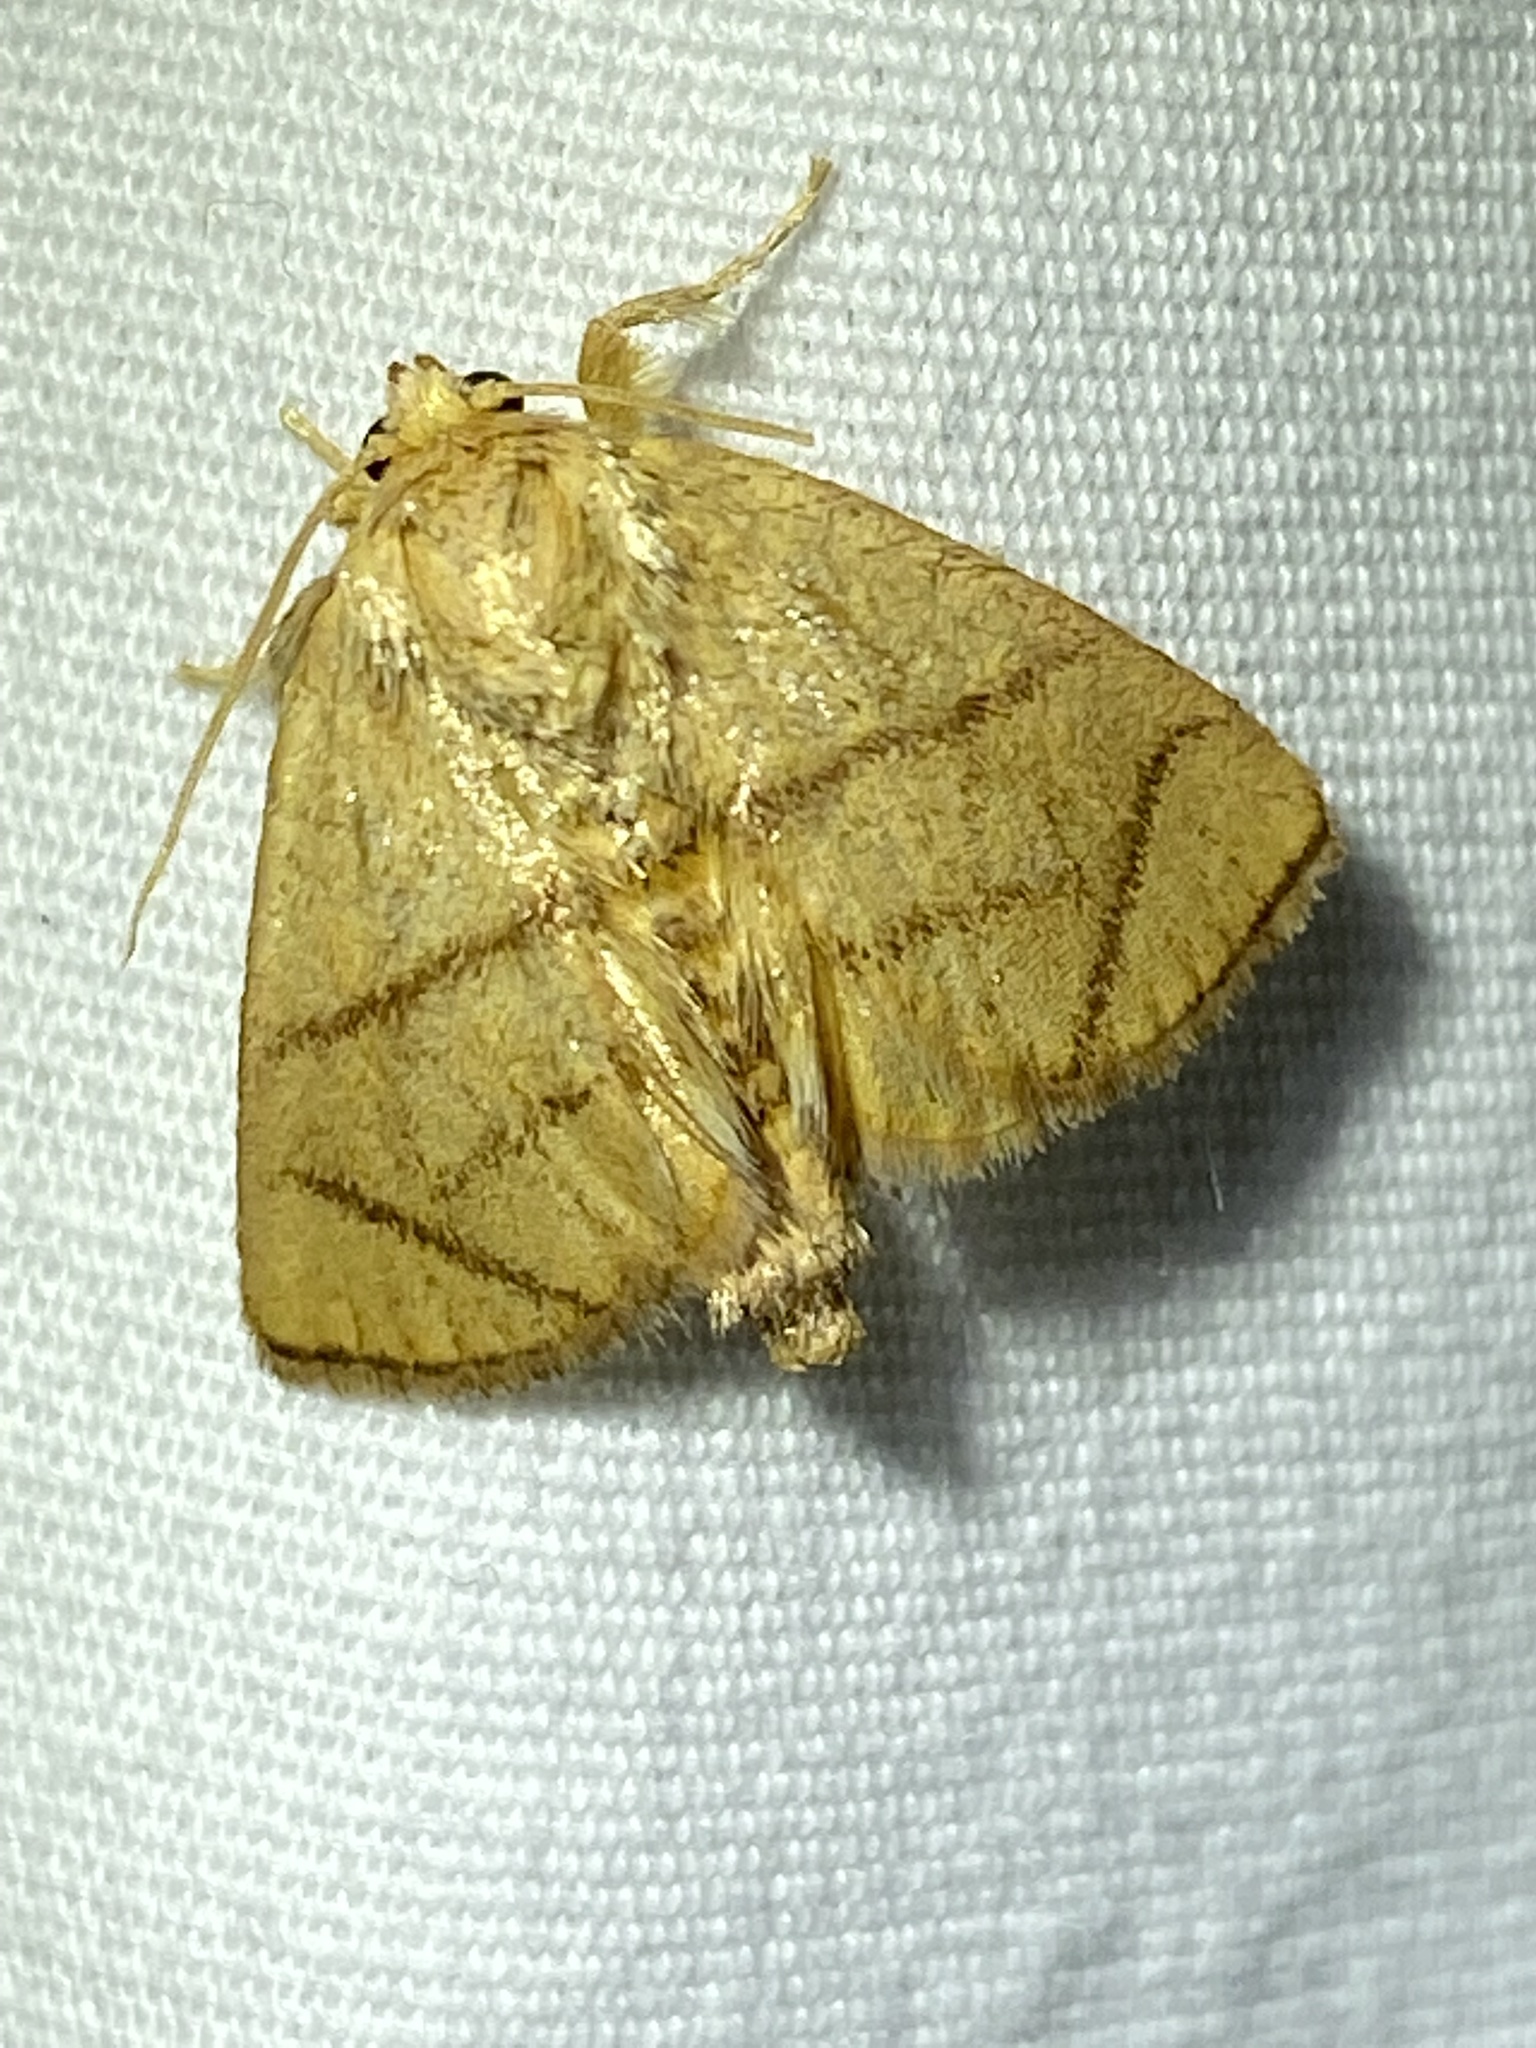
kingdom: Animalia
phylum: Arthropoda
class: Insecta
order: Lepidoptera
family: Limacodidae
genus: Apoda
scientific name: Apoda y-inversa
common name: Yellow-collared slug moth
